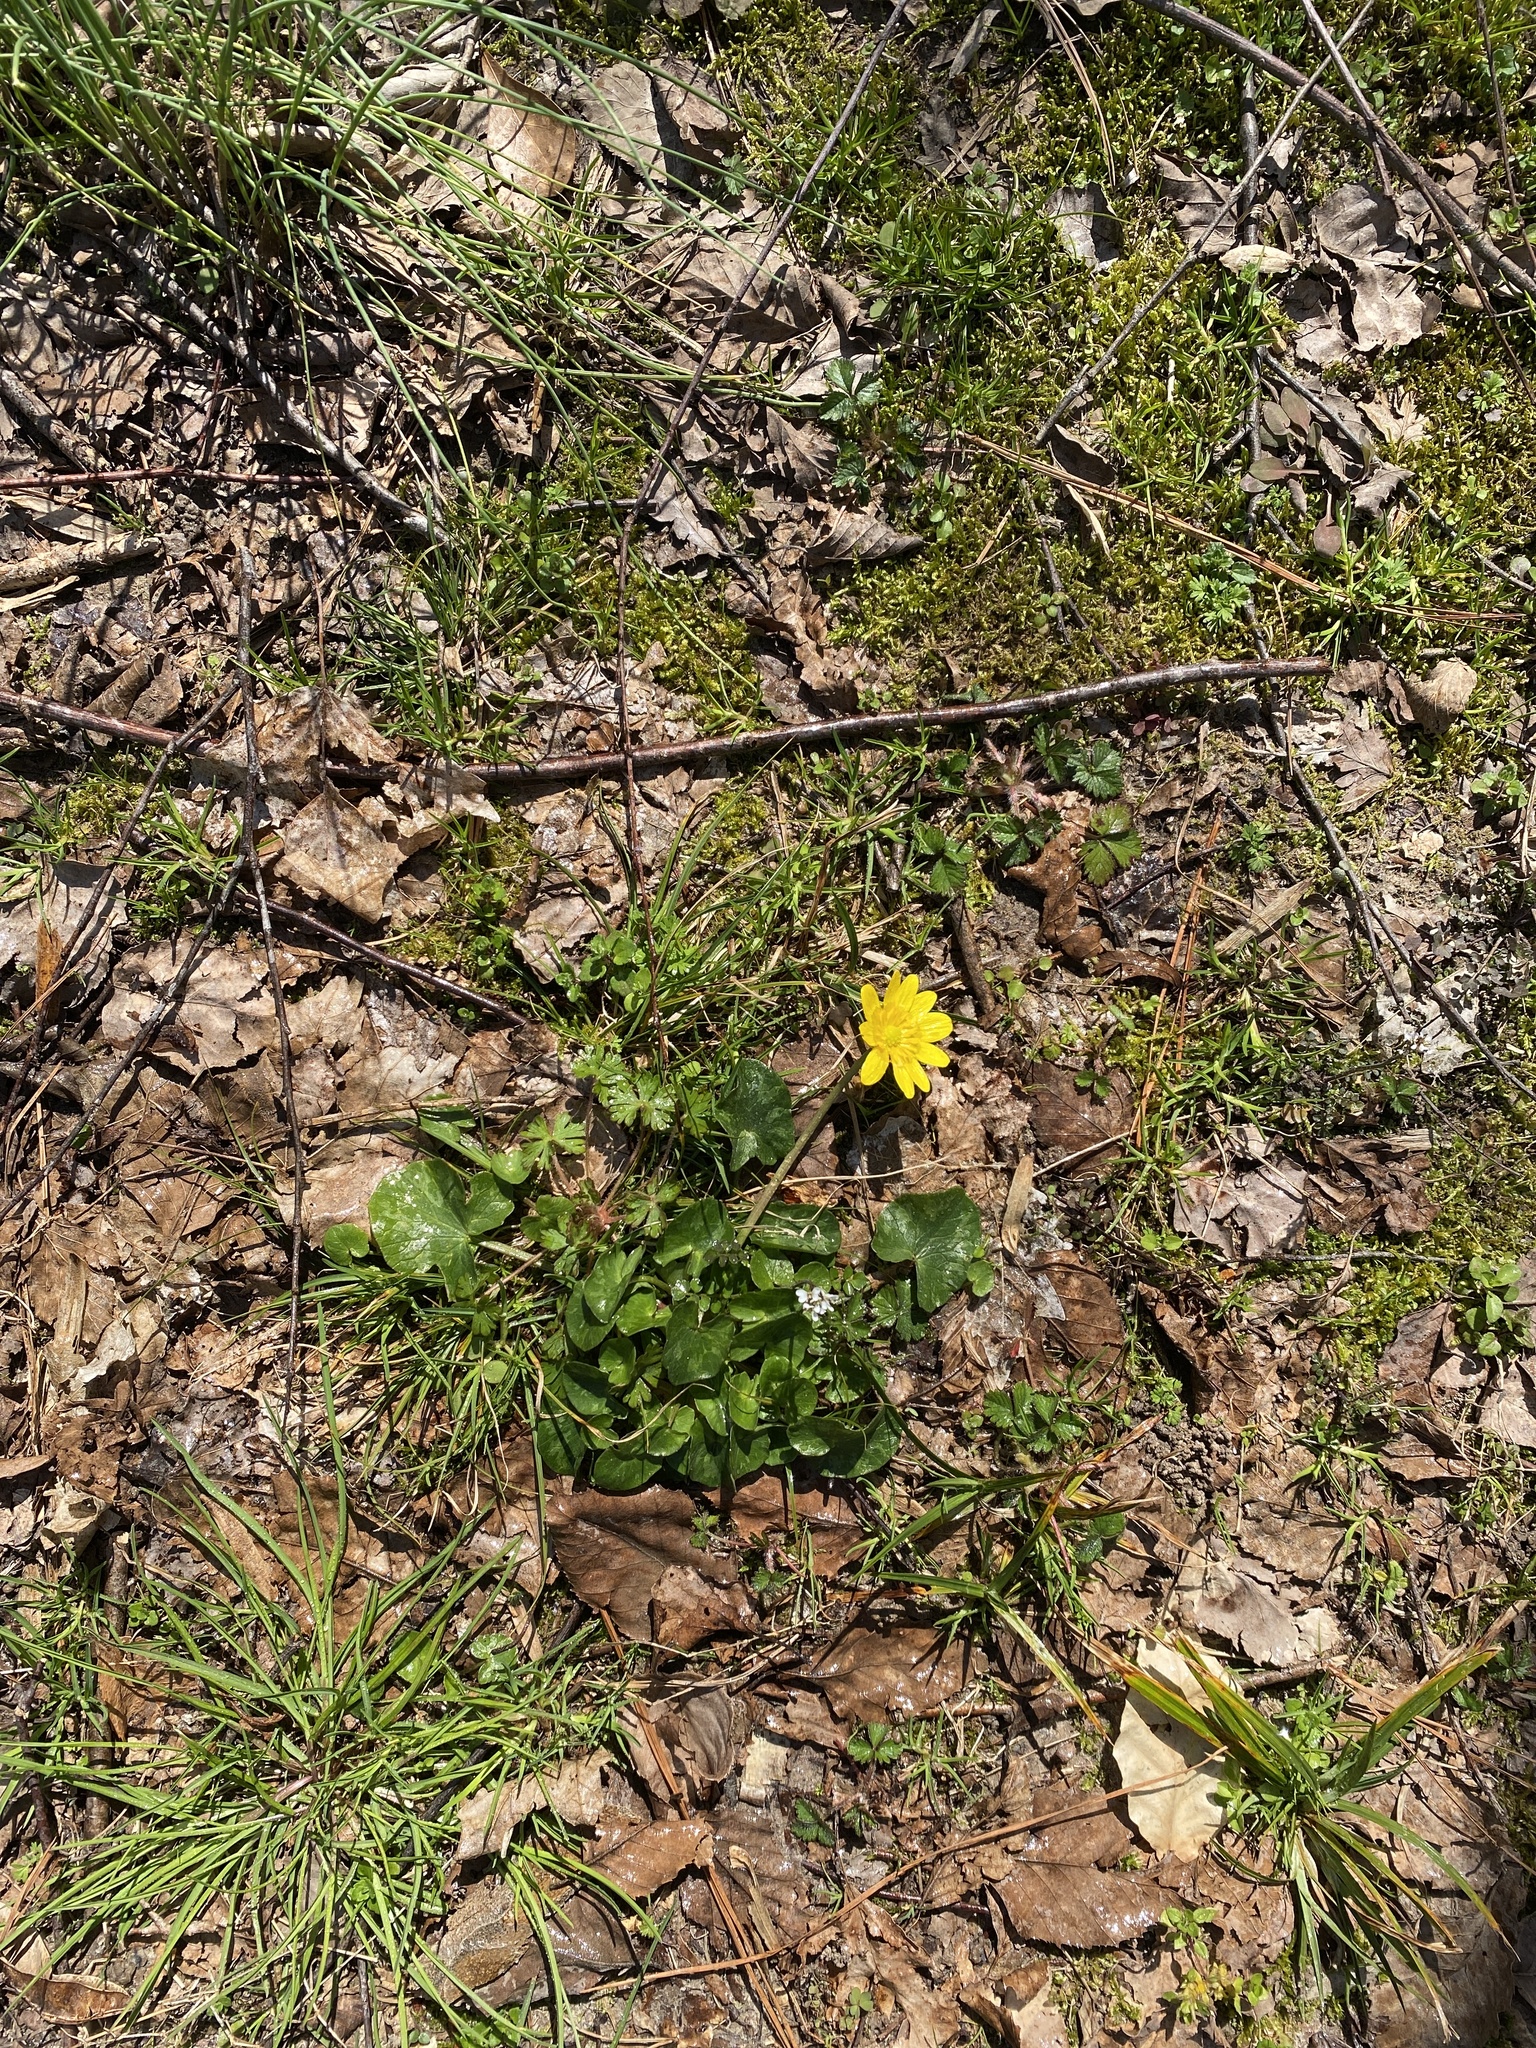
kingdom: Plantae
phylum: Tracheophyta
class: Magnoliopsida
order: Ranunculales
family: Ranunculaceae
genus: Ficaria
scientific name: Ficaria verna
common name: Lesser celandine
